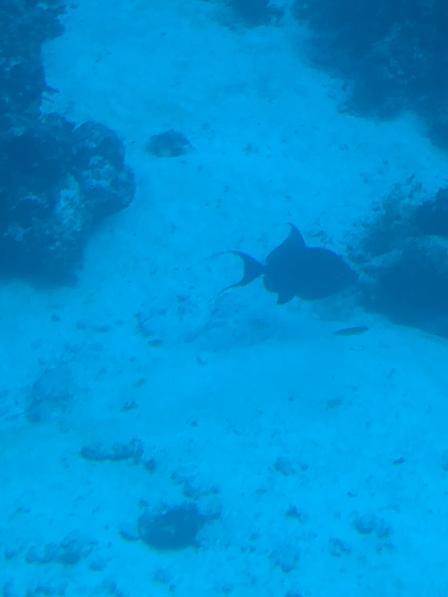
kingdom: Animalia
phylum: Chordata
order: Tetraodontiformes
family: Balistidae
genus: Balistes
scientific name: Balistes vetula
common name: Queen triggerfish
